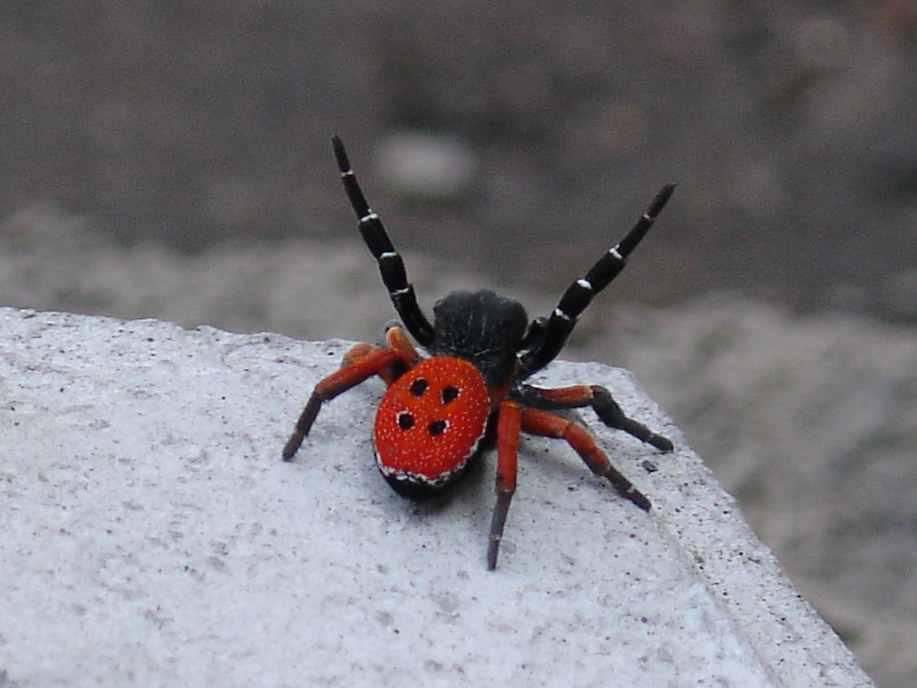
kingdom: Animalia
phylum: Arthropoda
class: Arachnida
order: Araneae
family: Eresidae
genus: Eresus
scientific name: Eresus kollari
